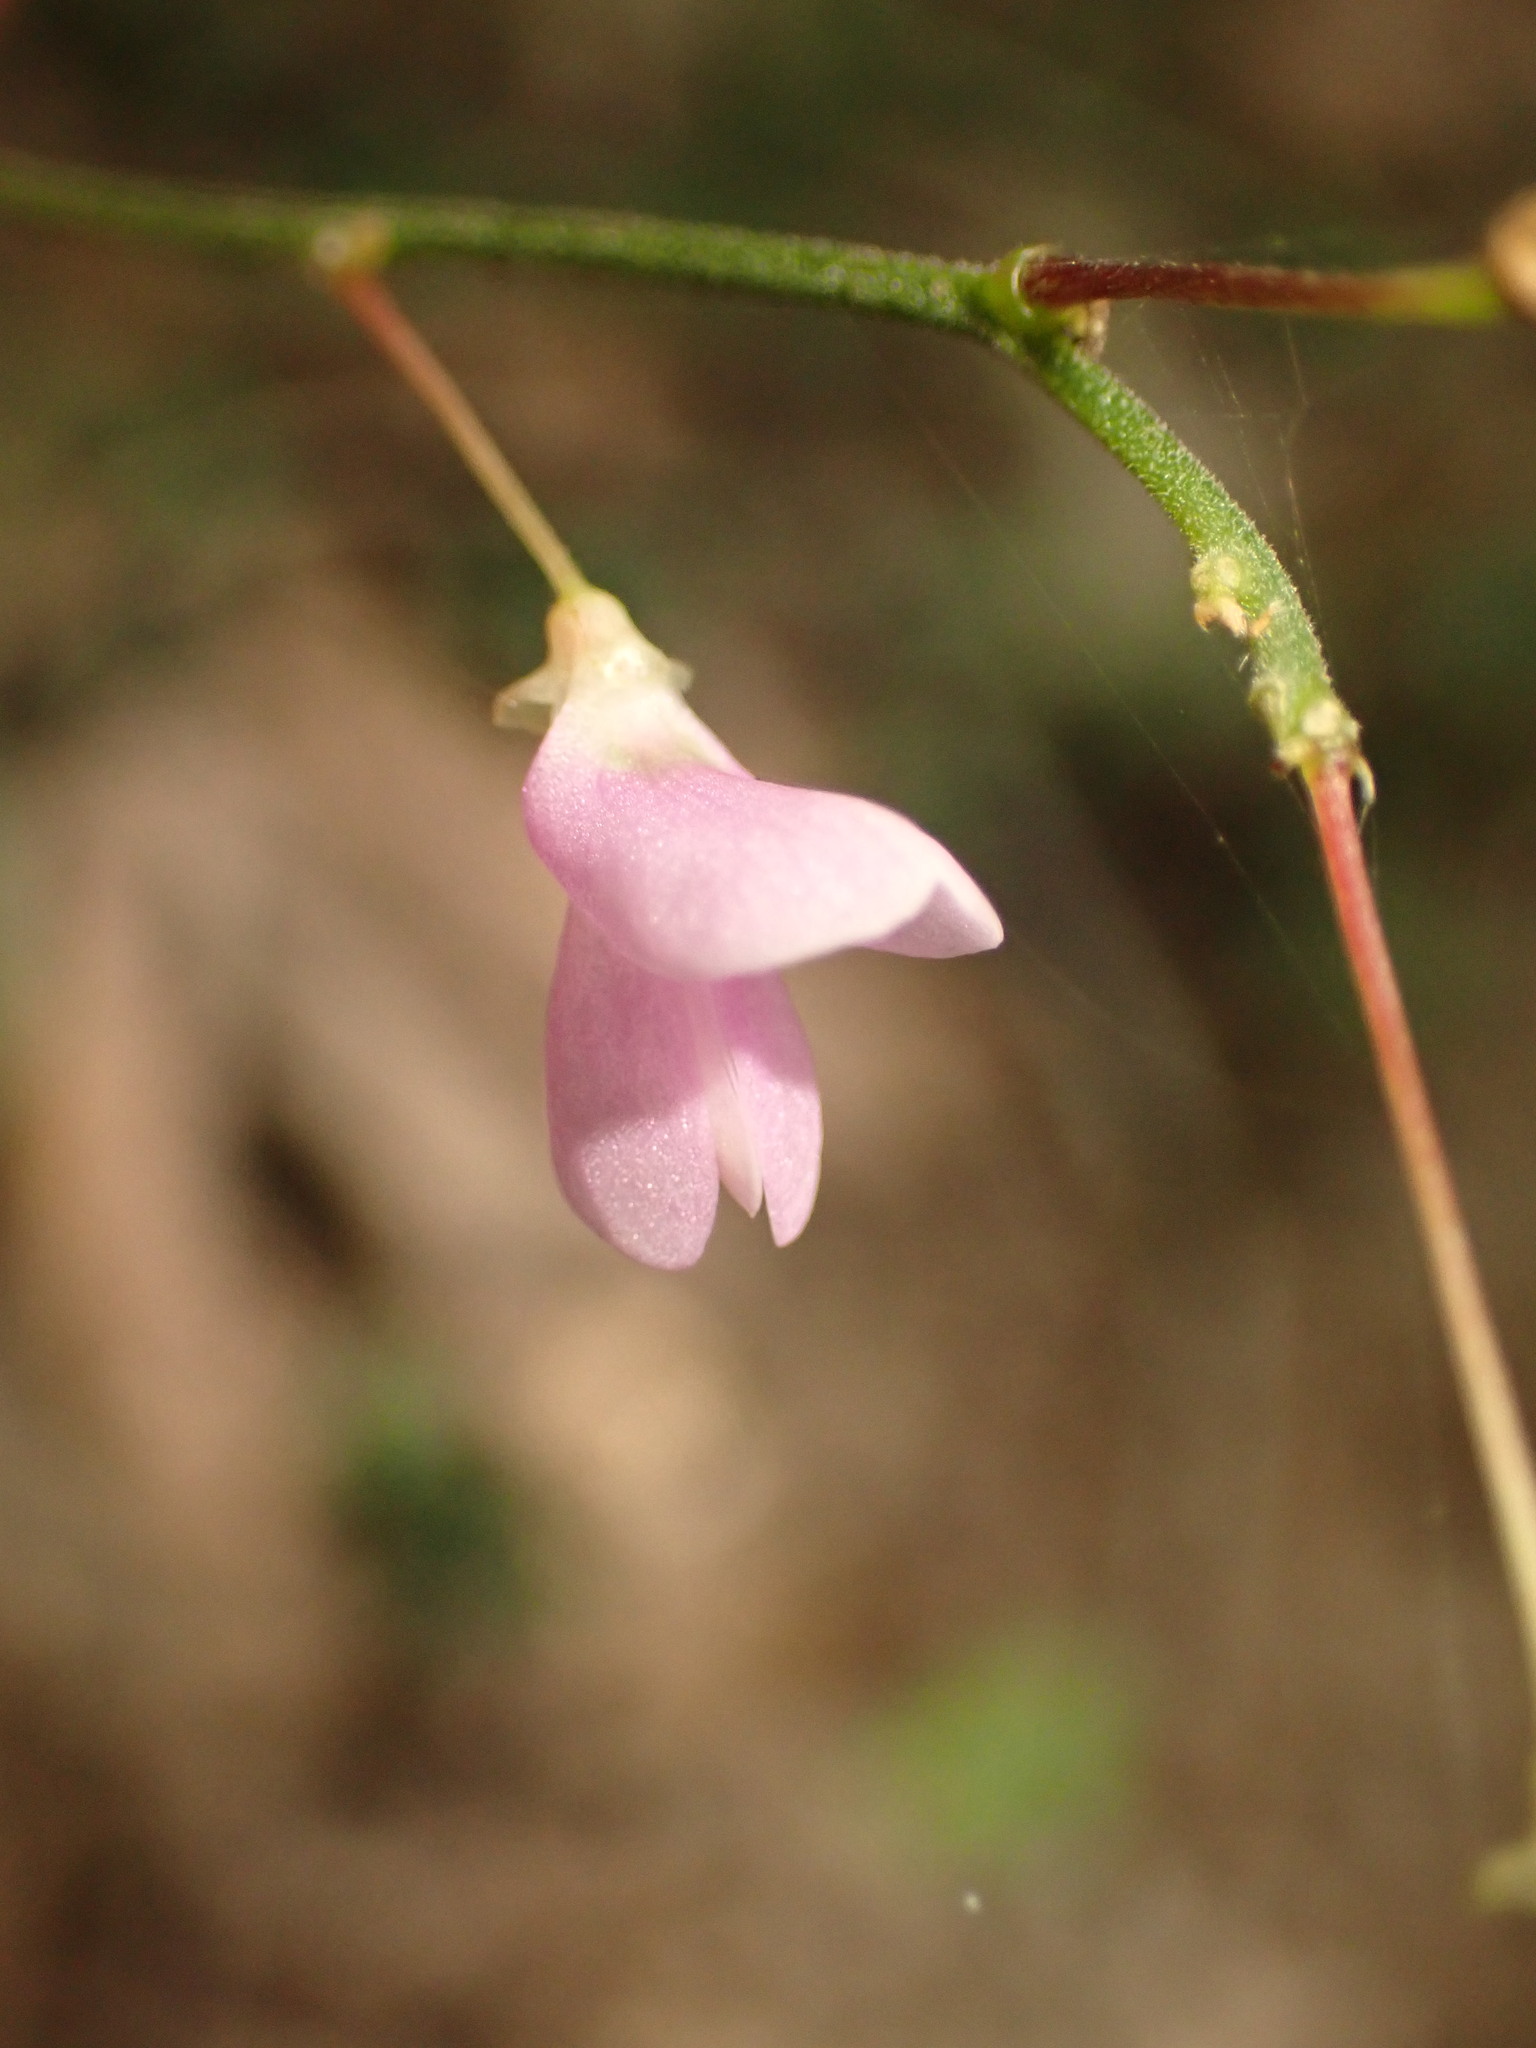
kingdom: Plantae
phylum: Tracheophyta
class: Magnoliopsida
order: Fabales
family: Fabaceae
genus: Hylodesmum
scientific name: Hylodesmum nudiflorum
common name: Bare-stemmed tick-trefoil
